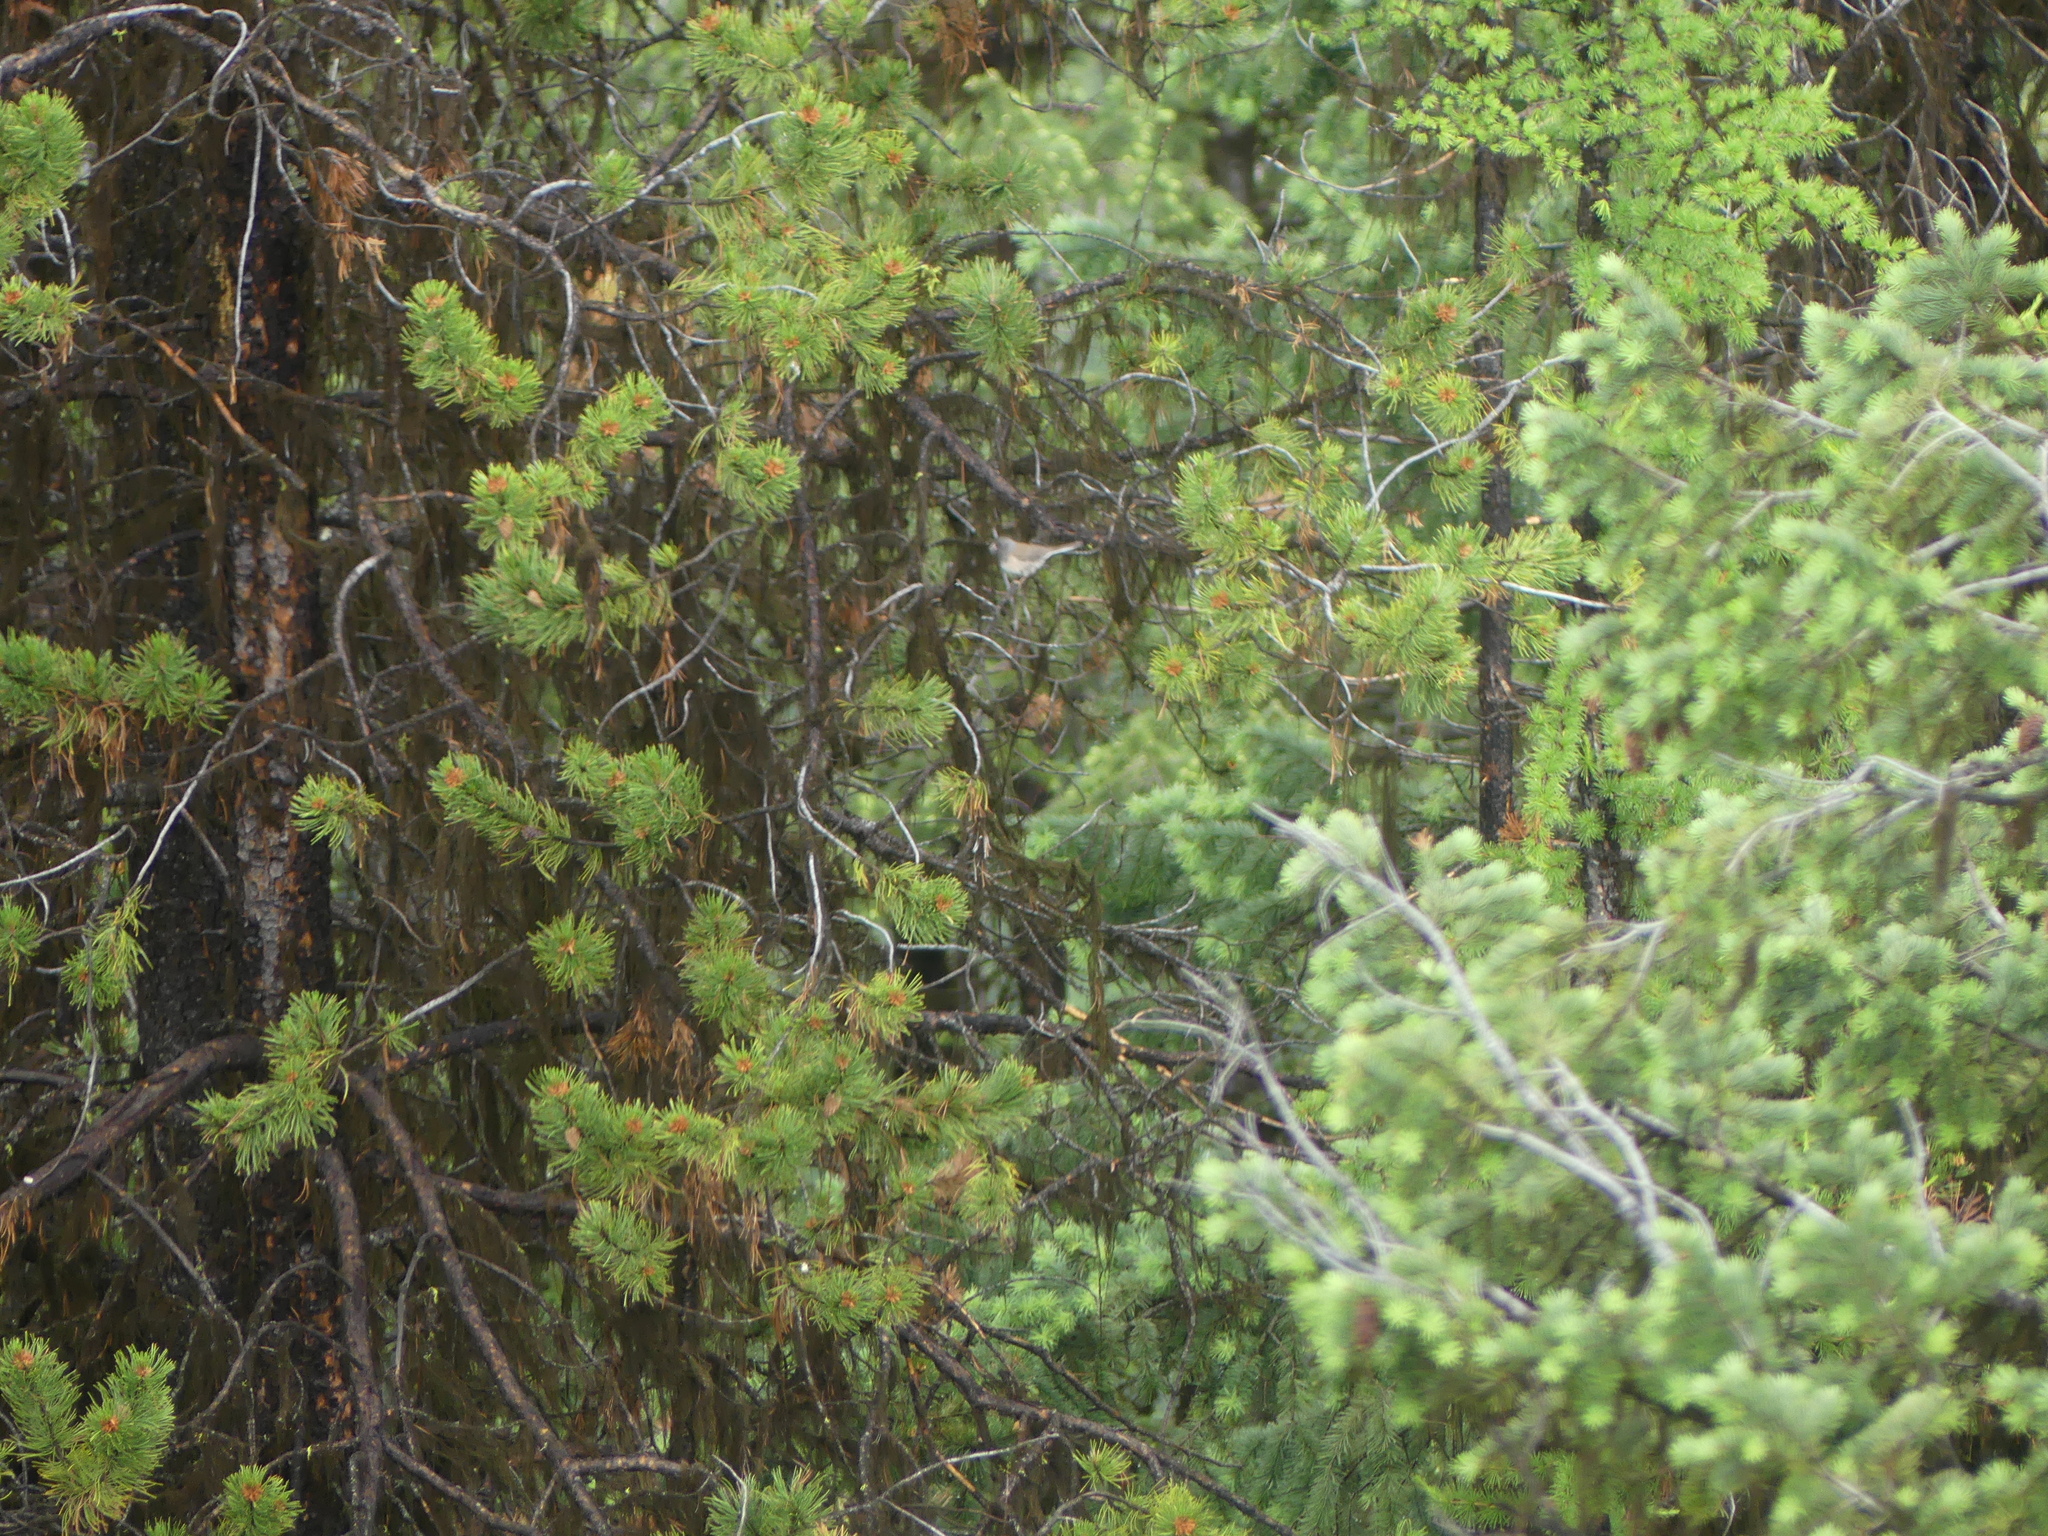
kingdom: Animalia
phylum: Chordata
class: Aves
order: Passeriformes
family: Passerellidae
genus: Junco
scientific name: Junco hyemalis
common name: Dark-eyed junco
